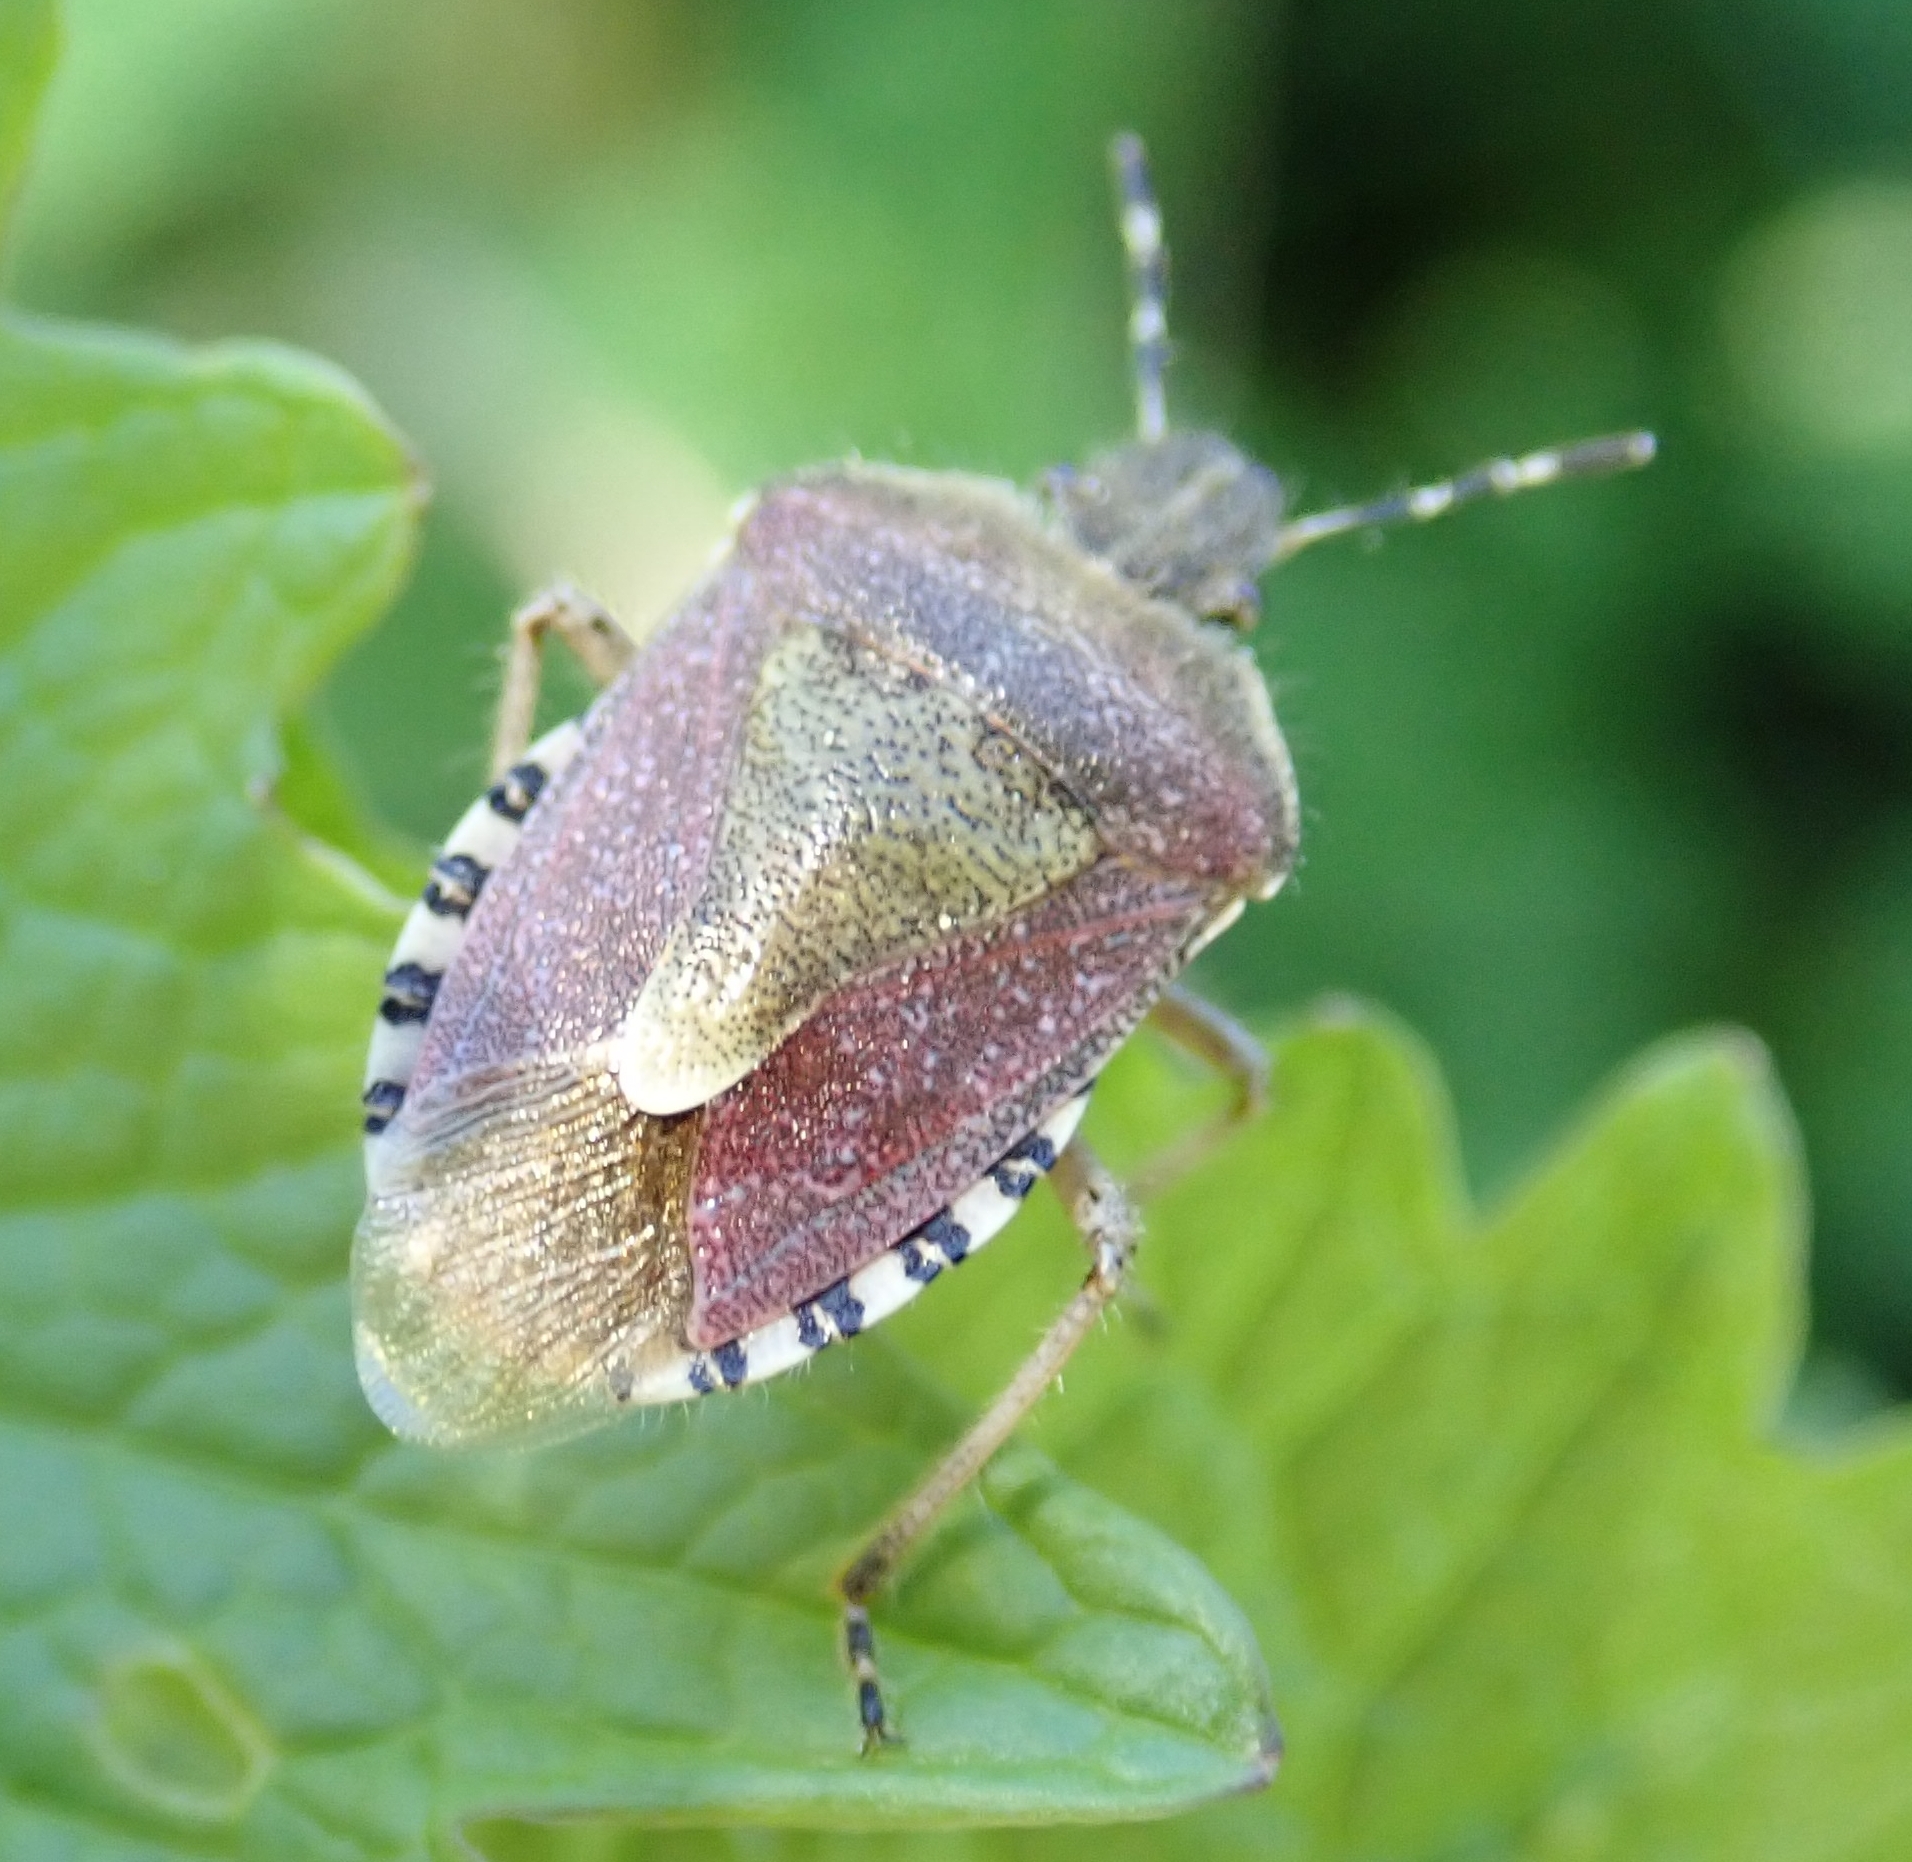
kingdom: Animalia
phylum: Arthropoda
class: Insecta
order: Hemiptera
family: Pentatomidae
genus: Dolycoris
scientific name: Dolycoris baccarum
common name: Sloe bug
